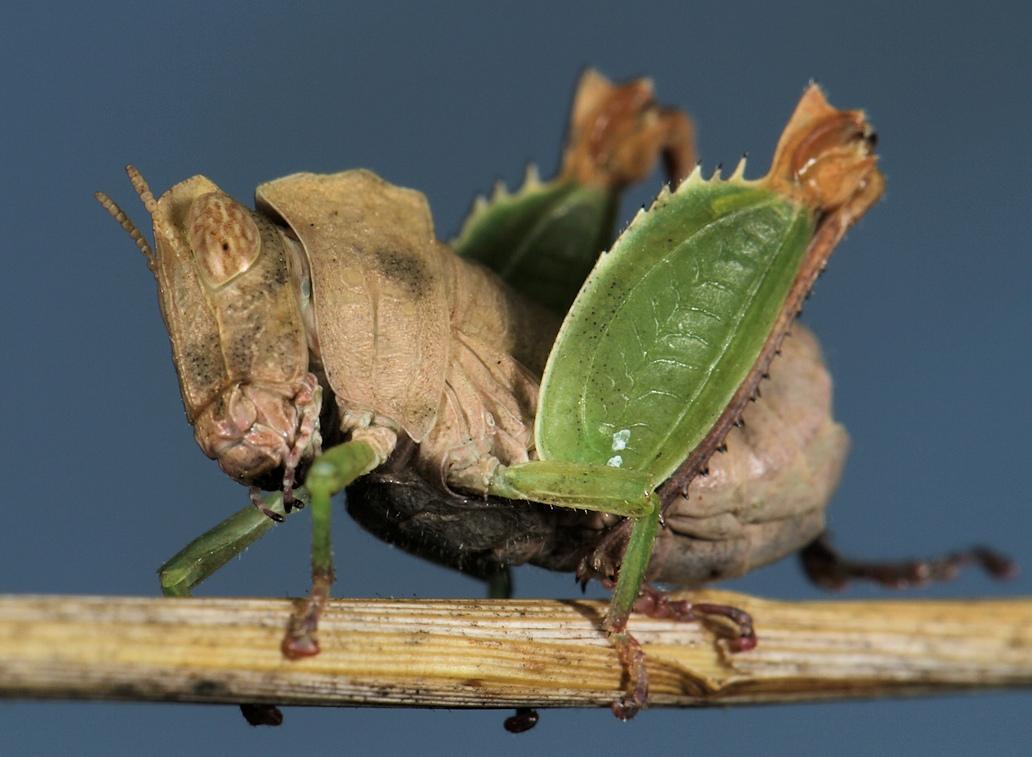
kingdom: Animalia
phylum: Arthropoda
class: Insecta
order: Orthoptera
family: Thericleidae
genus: Schulthessiella
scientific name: Schulthessiella minuta
